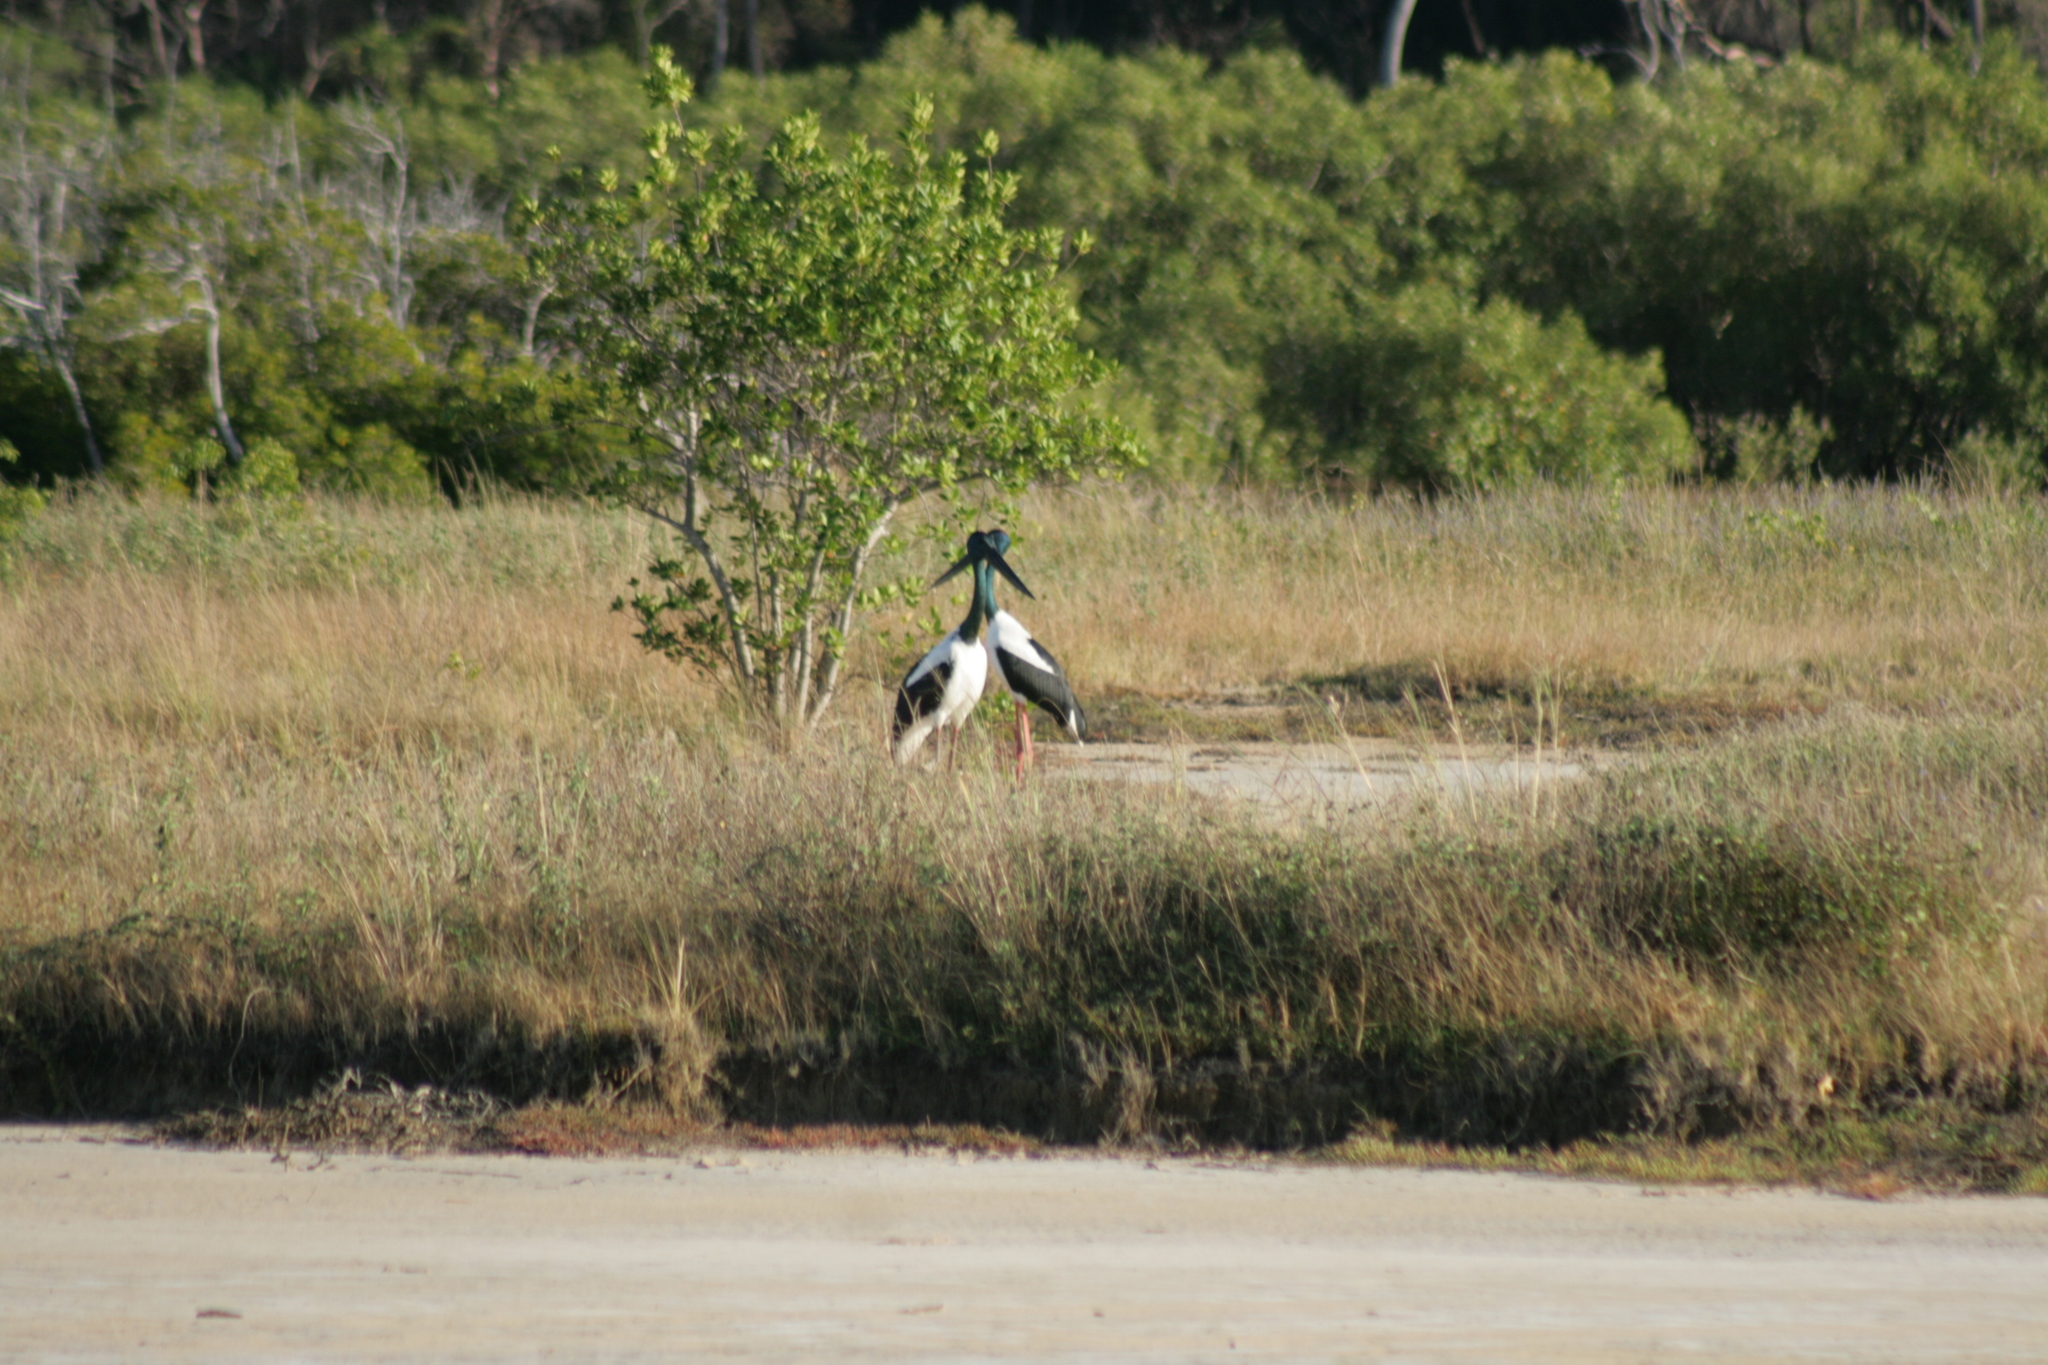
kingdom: Animalia
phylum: Chordata
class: Aves
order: Ciconiiformes
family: Ciconiidae
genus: Ephippiorhynchus
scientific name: Ephippiorhynchus asiaticus
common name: Black-necked stork
